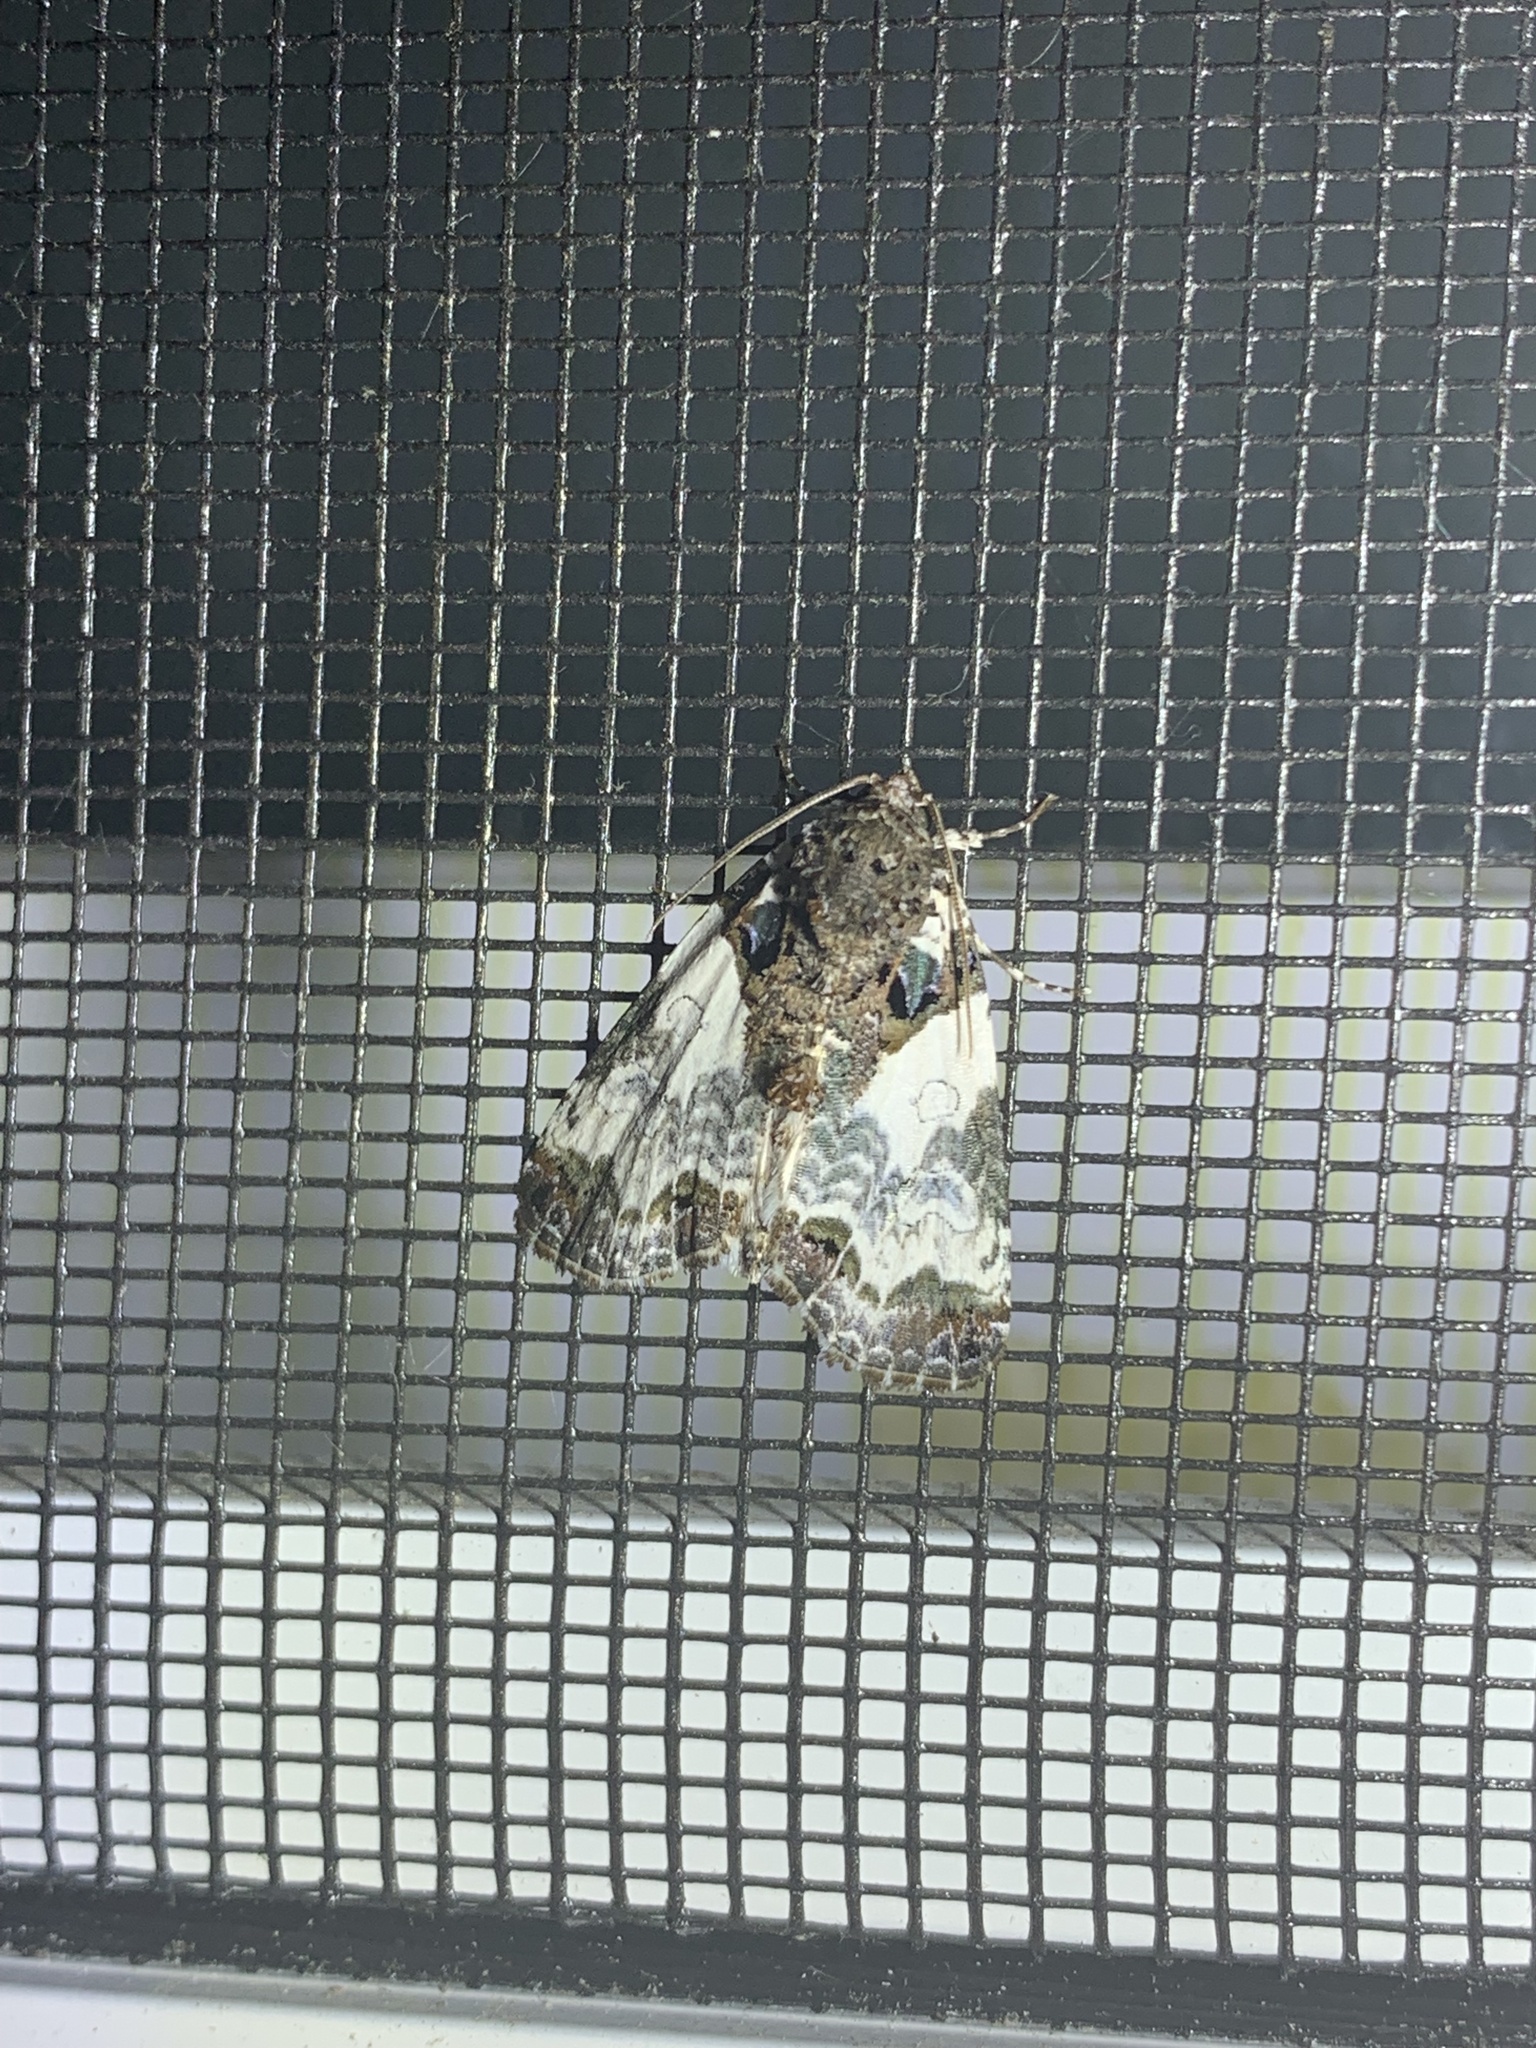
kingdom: Animalia
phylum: Arthropoda
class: Insecta
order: Lepidoptera
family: Noctuidae
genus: Cerma
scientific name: Cerma cerintha
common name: Tufted bird-dropping moth
